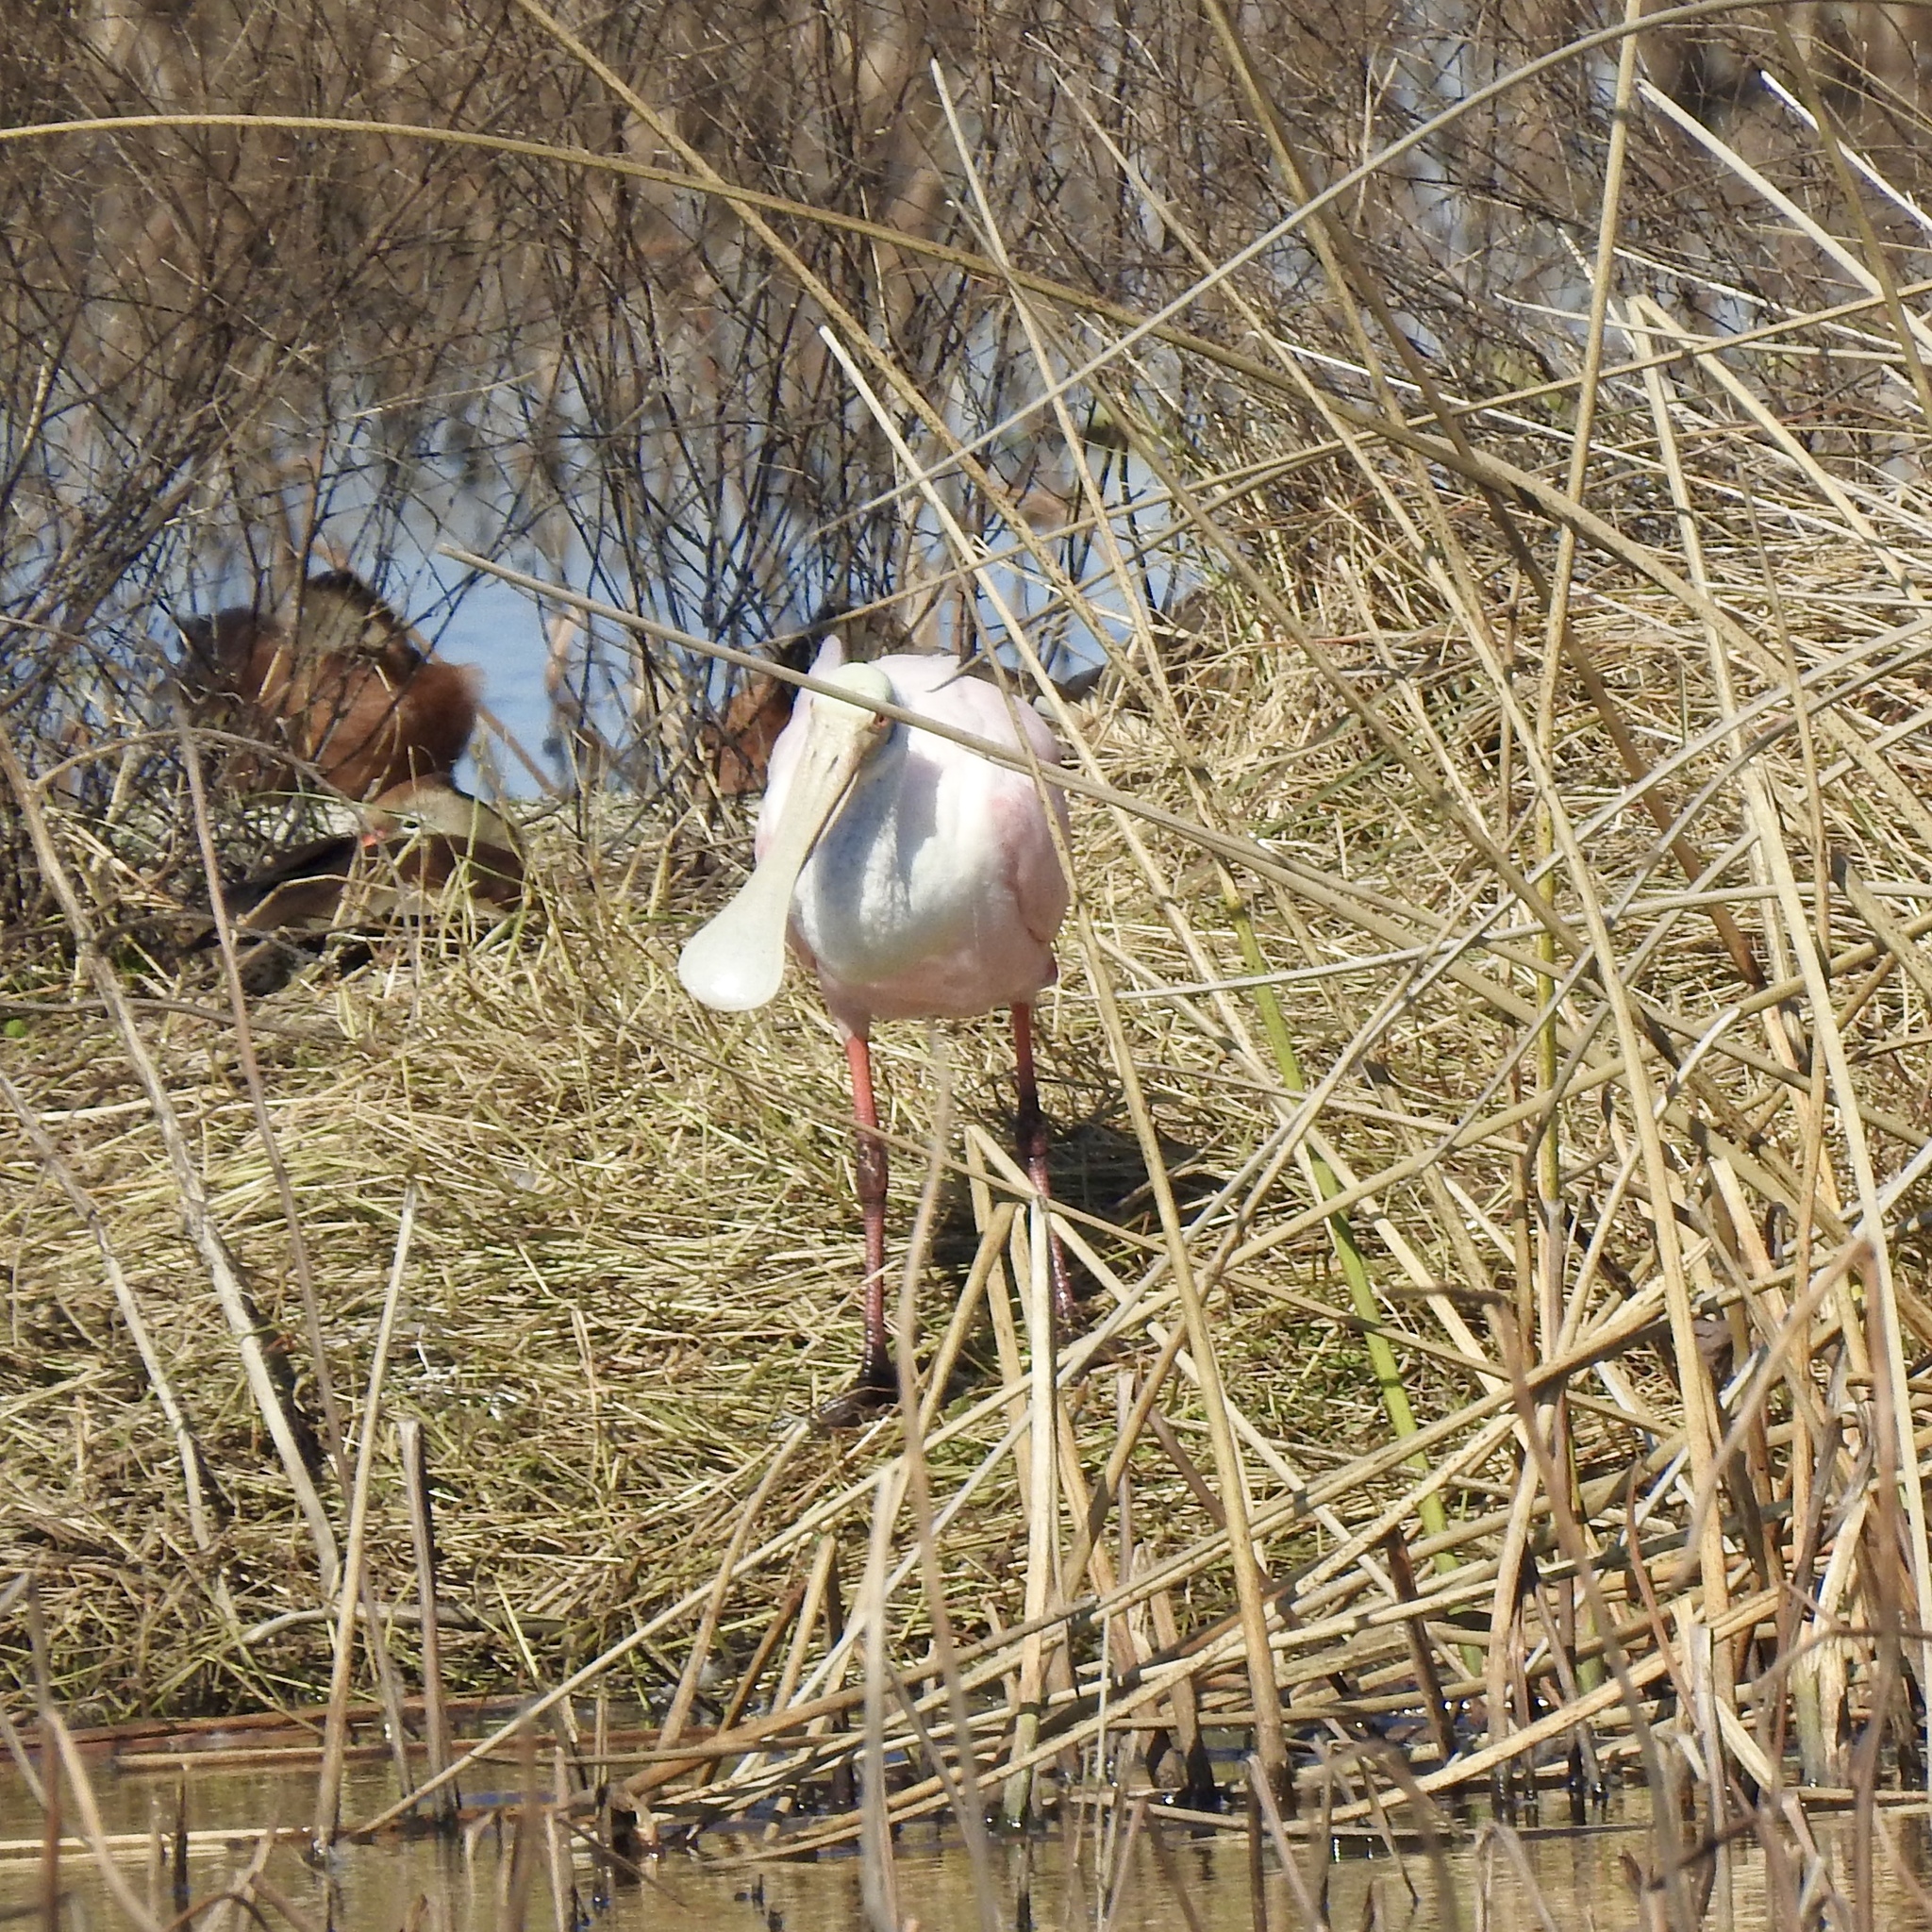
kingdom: Animalia
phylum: Chordata
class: Aves
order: Pelecaniformes
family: Threskiornithidae
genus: Platalea
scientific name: Platalea ajaja
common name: Roseate spoonbill
